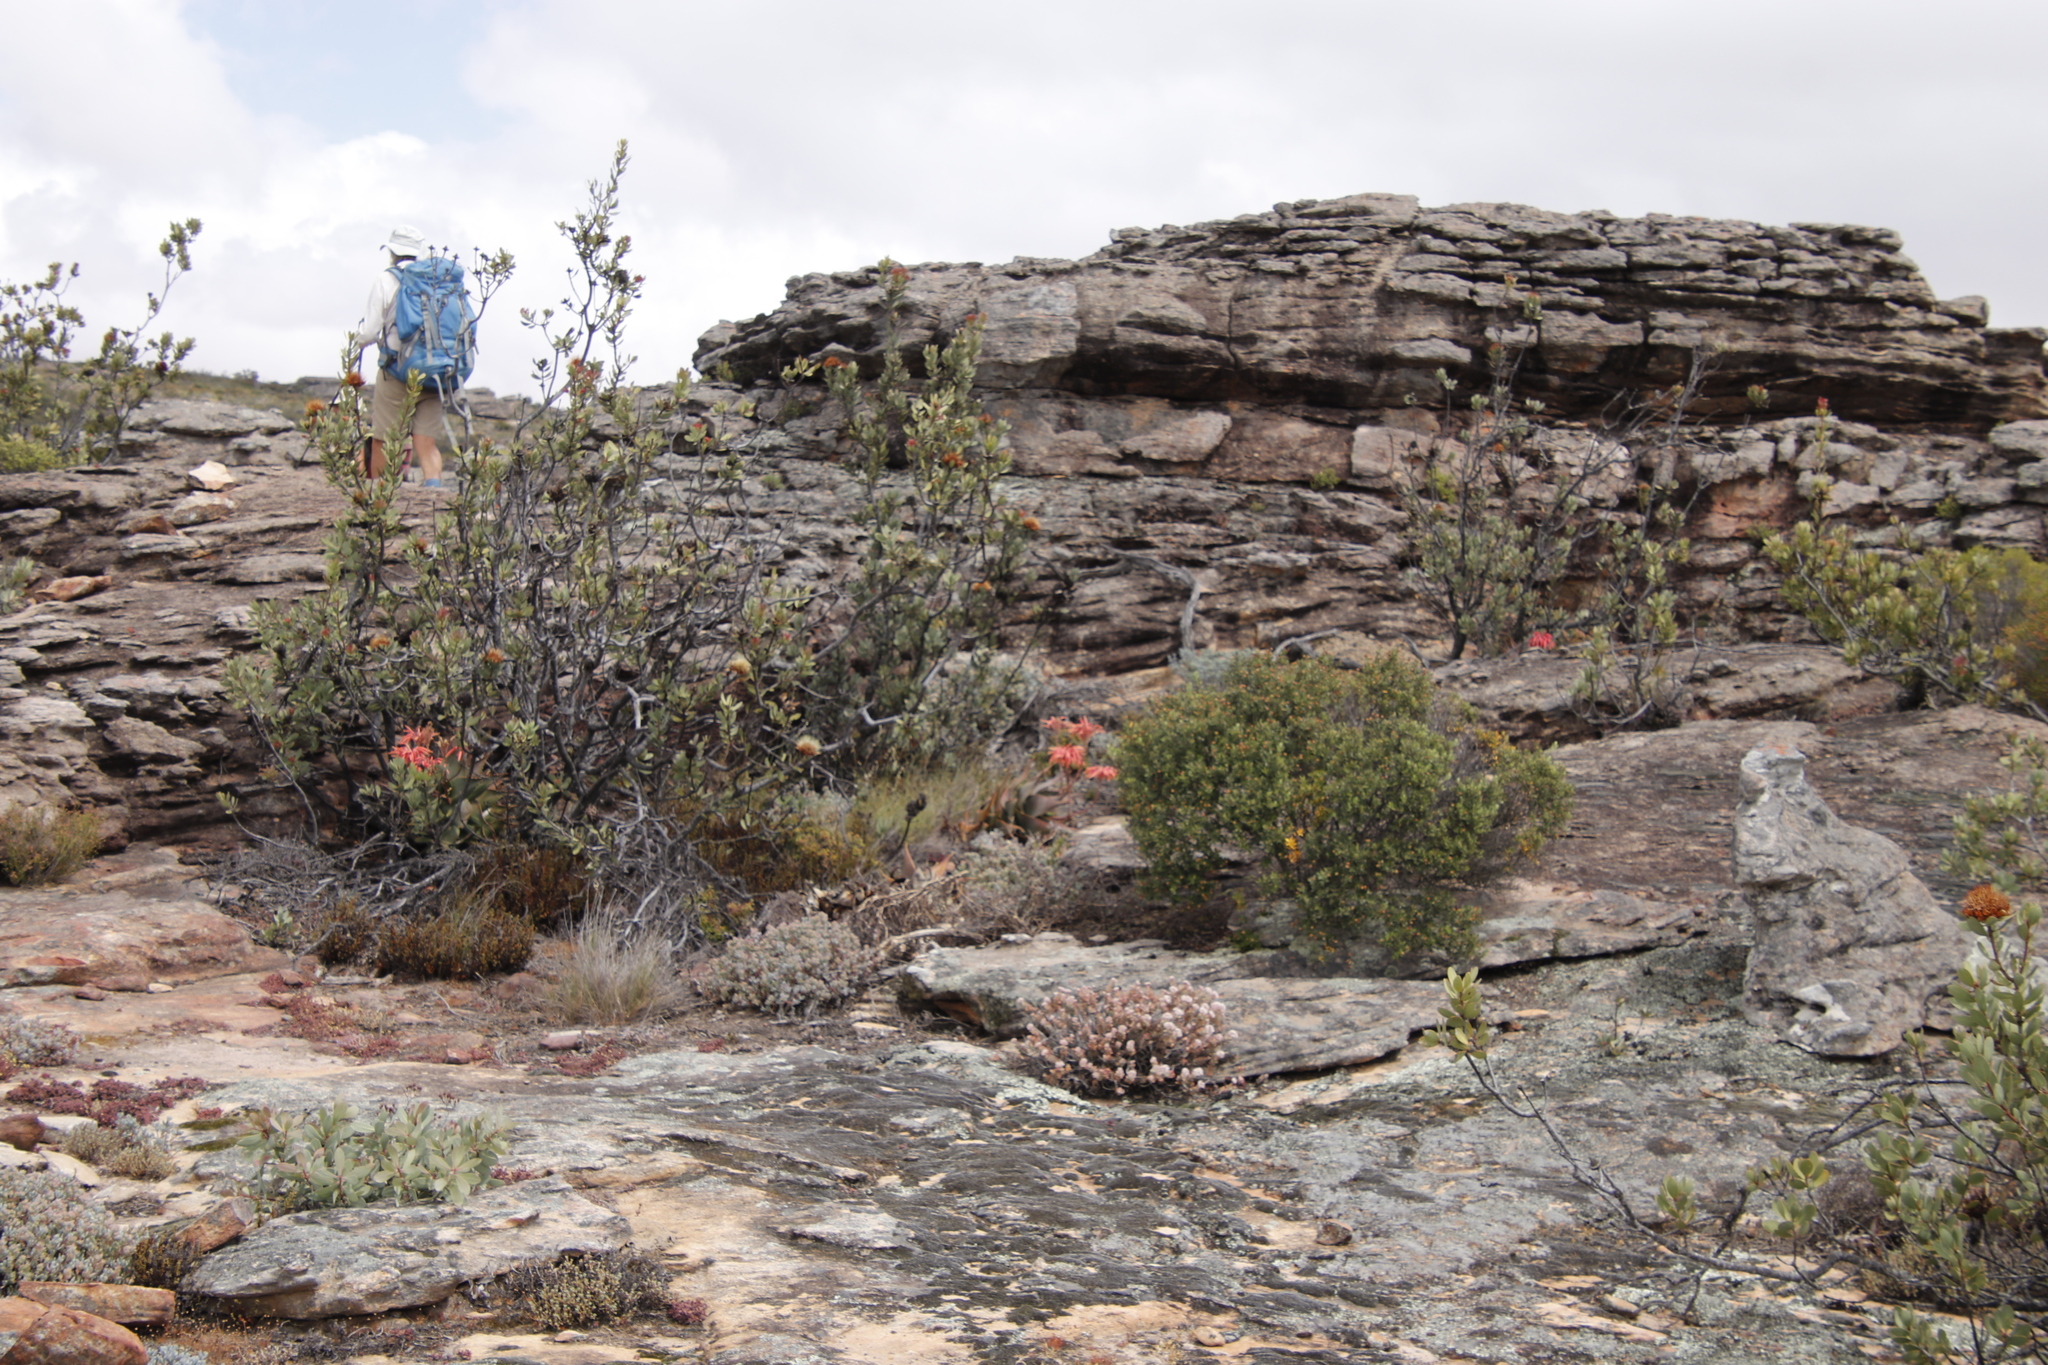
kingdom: Plantae
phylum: Tracheophyta
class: Liliopsida
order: Asparagales
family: Asphodelaceae
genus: Aloe
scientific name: Aloe perfoliata
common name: Mitra aloe
